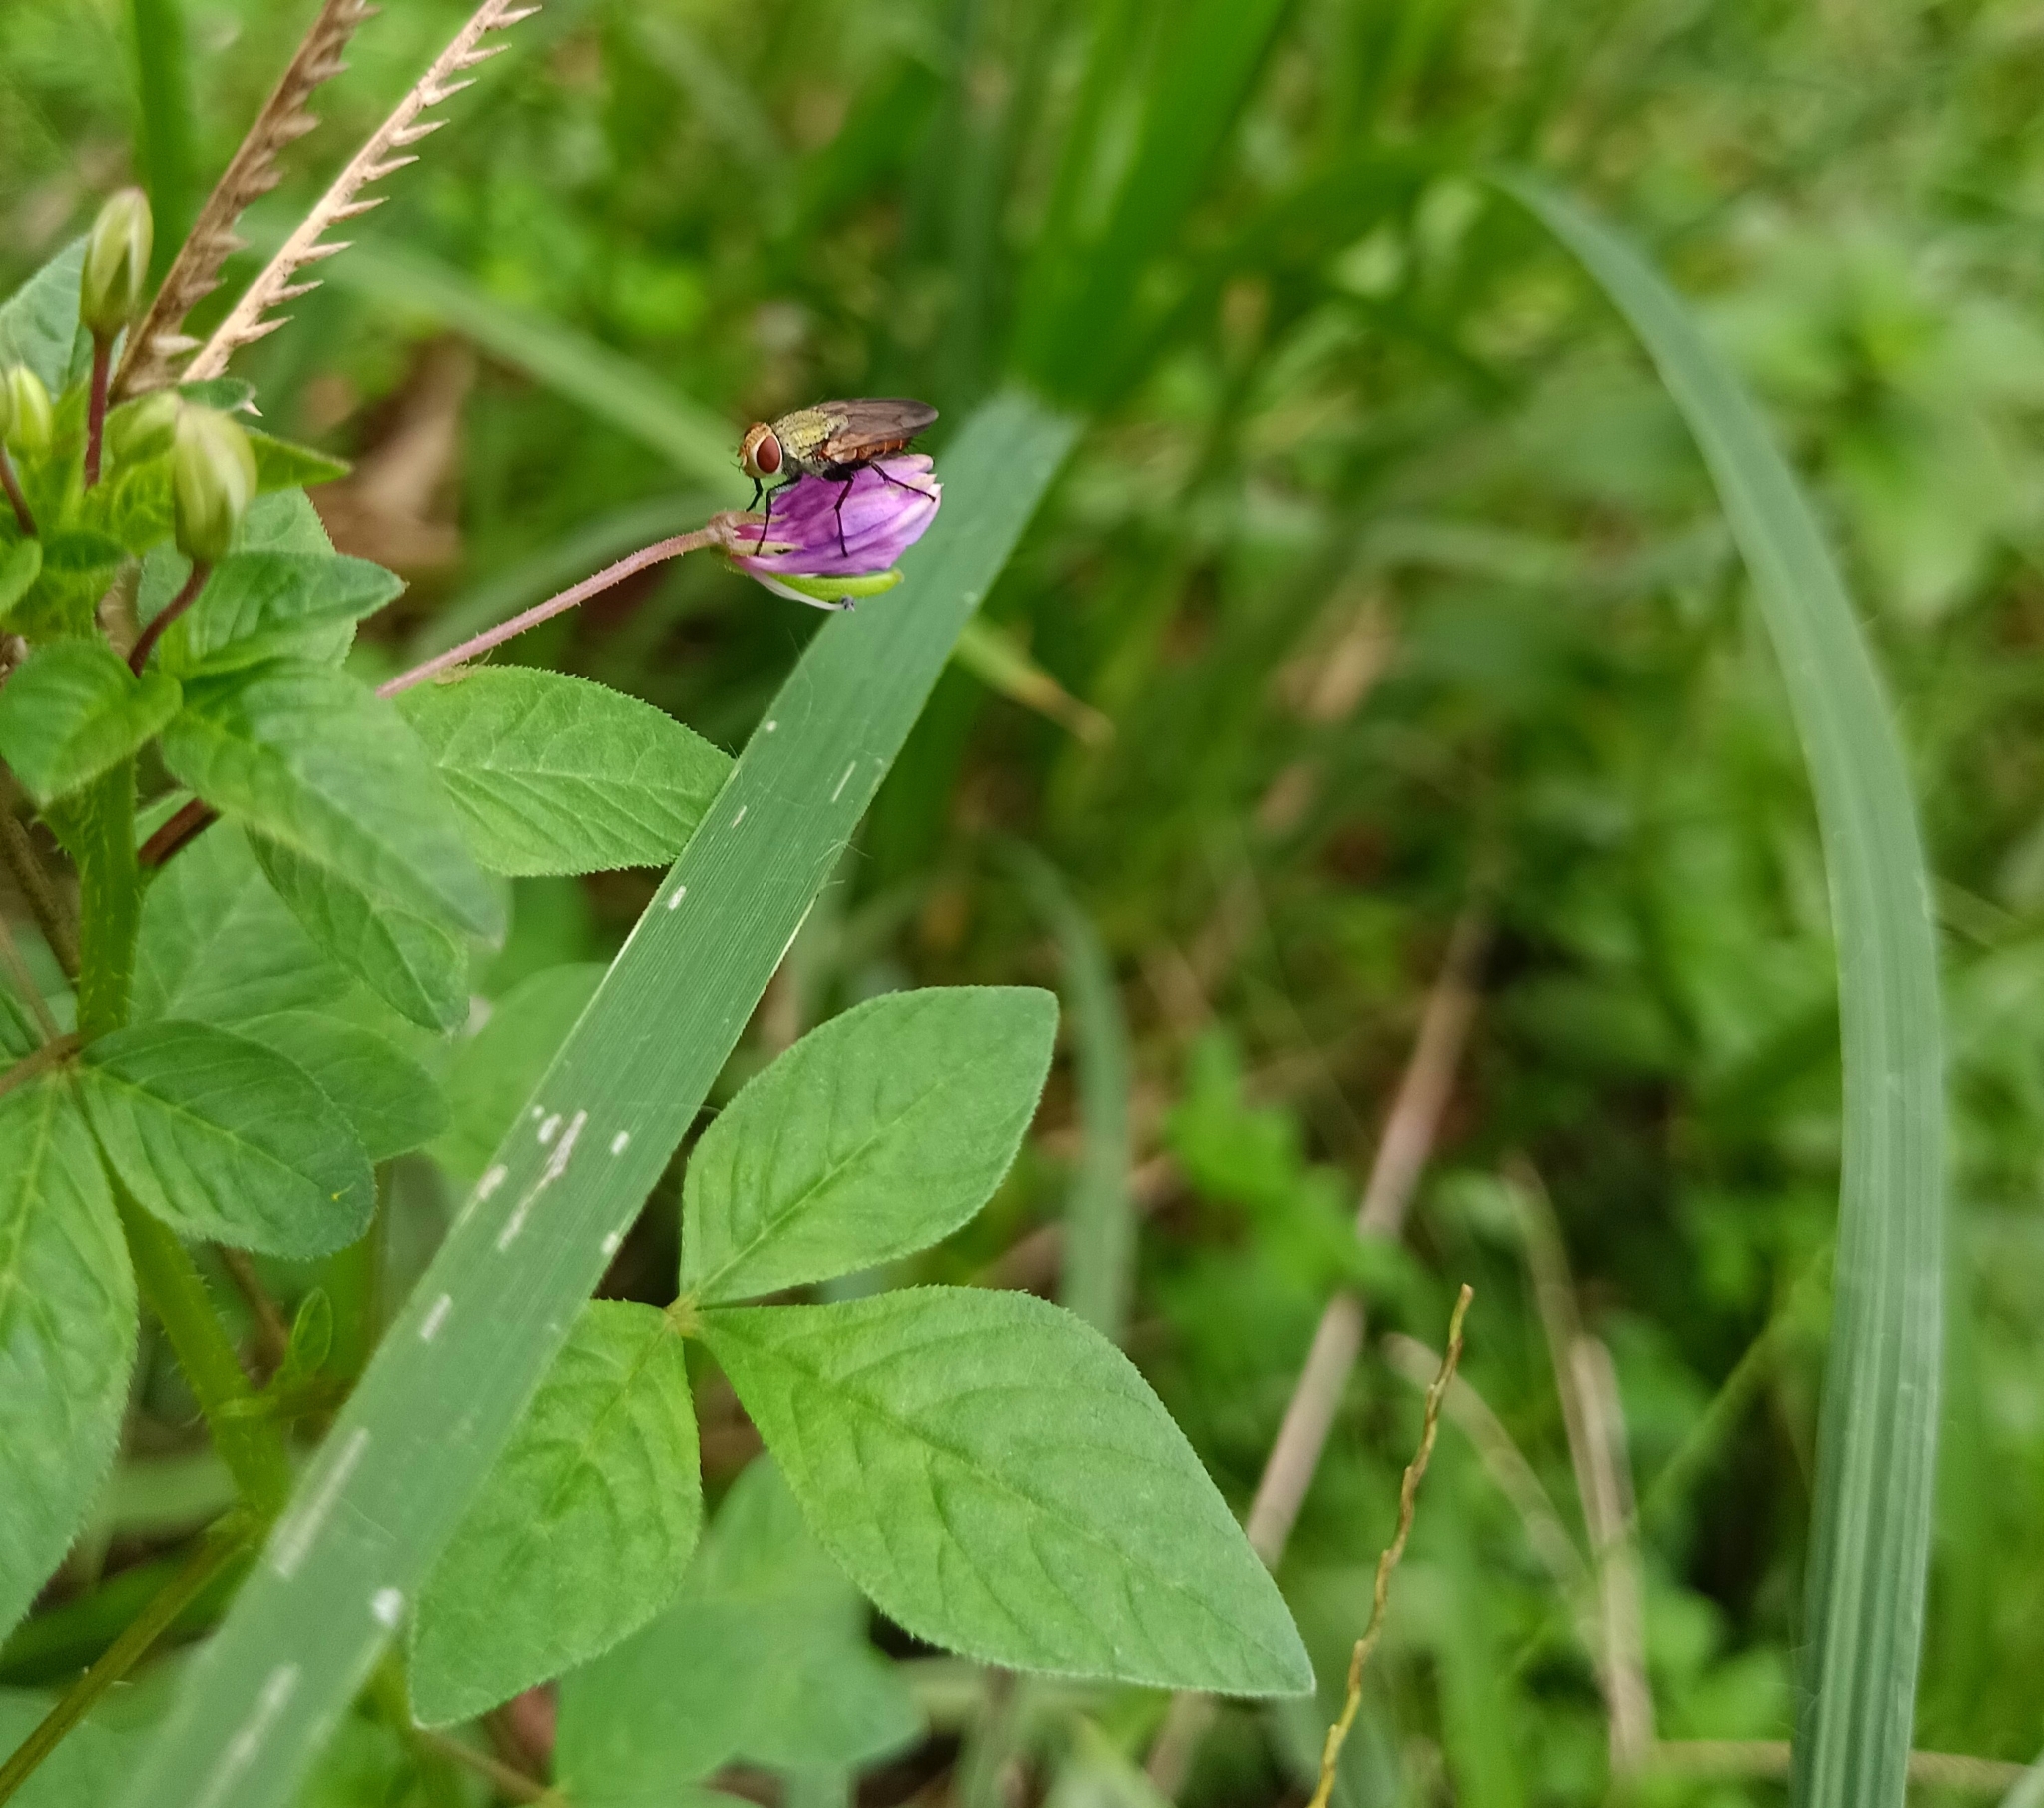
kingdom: Plantae
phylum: Tracheophyta
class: Magnoliopsida
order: Brassicales
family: Cleomaceae
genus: Sieruela
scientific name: Sieruela rutidosperma
